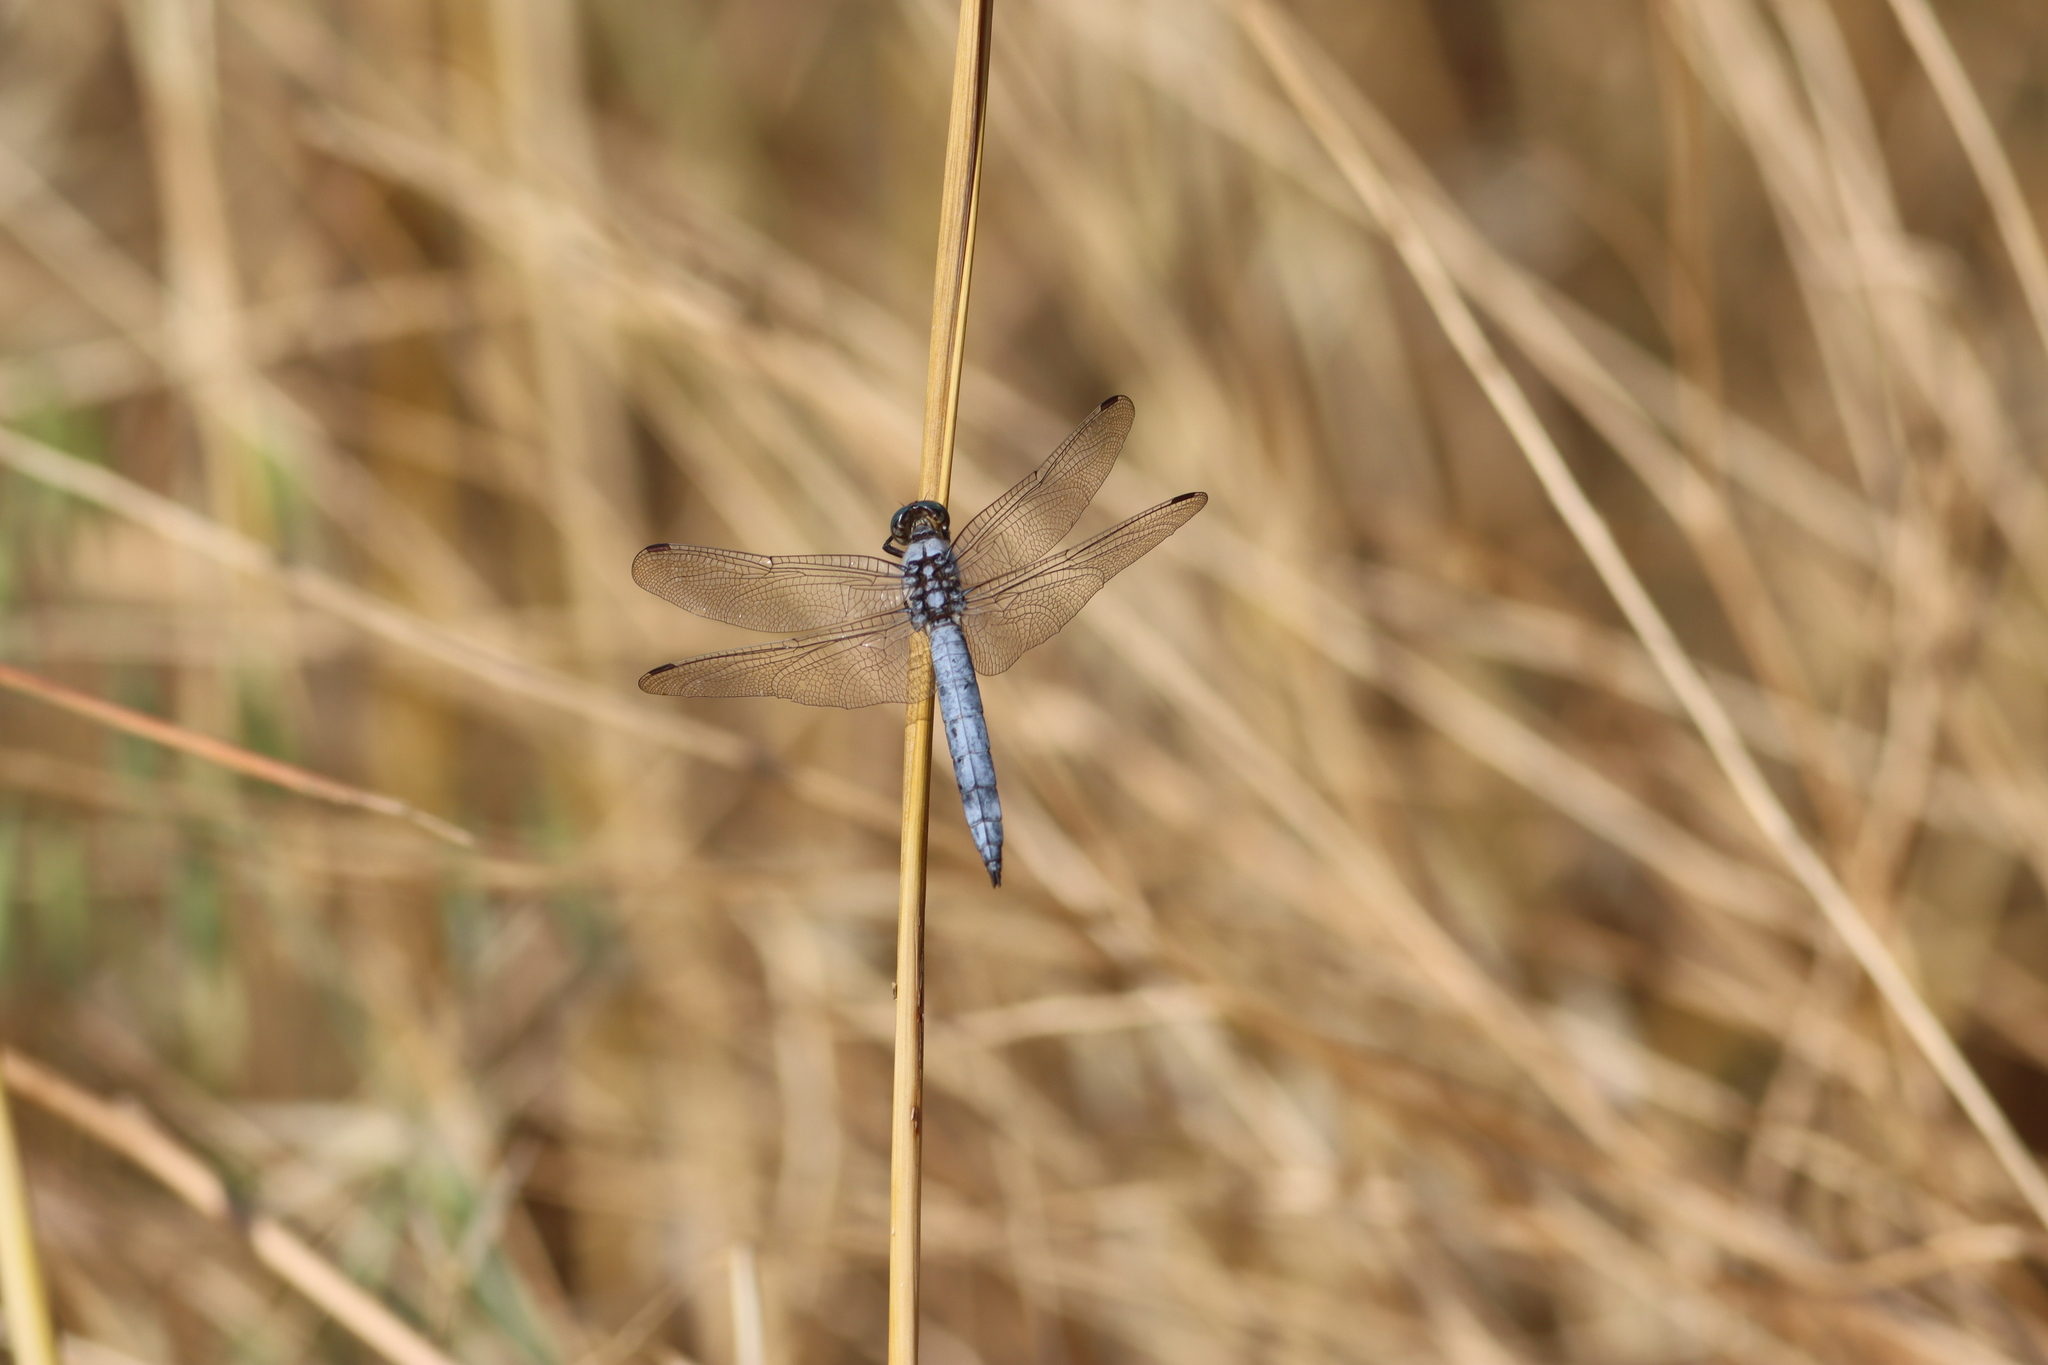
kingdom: Animalia
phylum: Arthropoda
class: Insecta
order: Odonata
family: Libellulidae
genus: Orthetrum
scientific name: Orthetrum brunneum
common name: Southern skimmer
